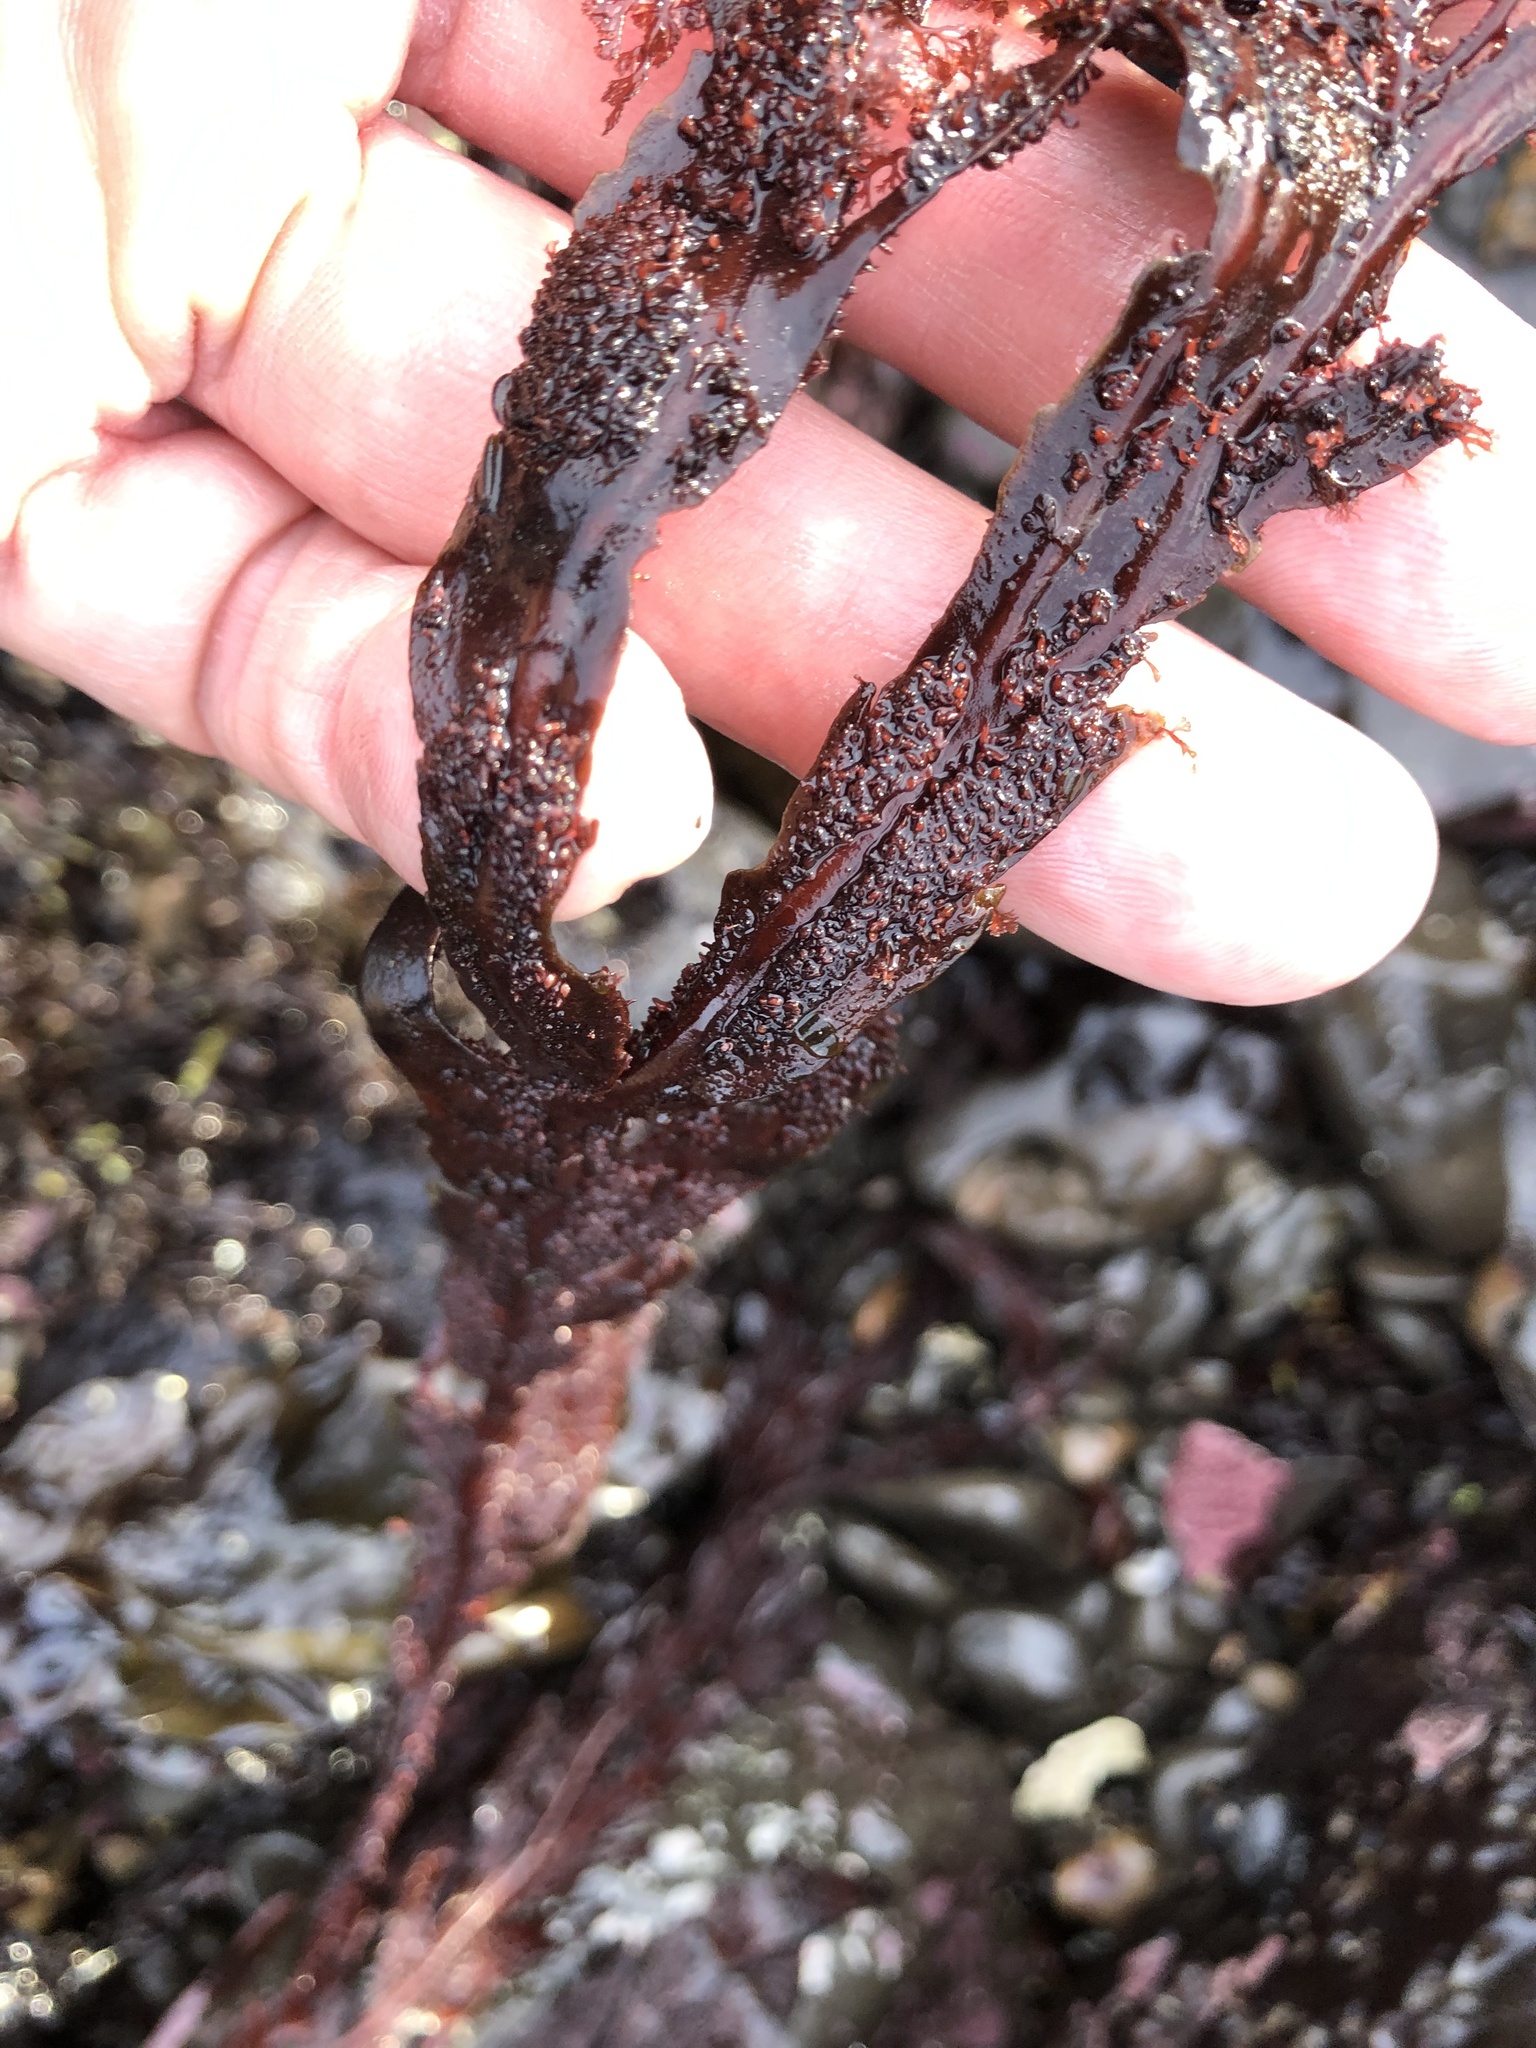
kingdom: Plantae
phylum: Rhodophyta
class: Florideophyceae
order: Gigartinales
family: Kallymeniaceae
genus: Erythrophyllum
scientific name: Erythrophyllum delesserioides
